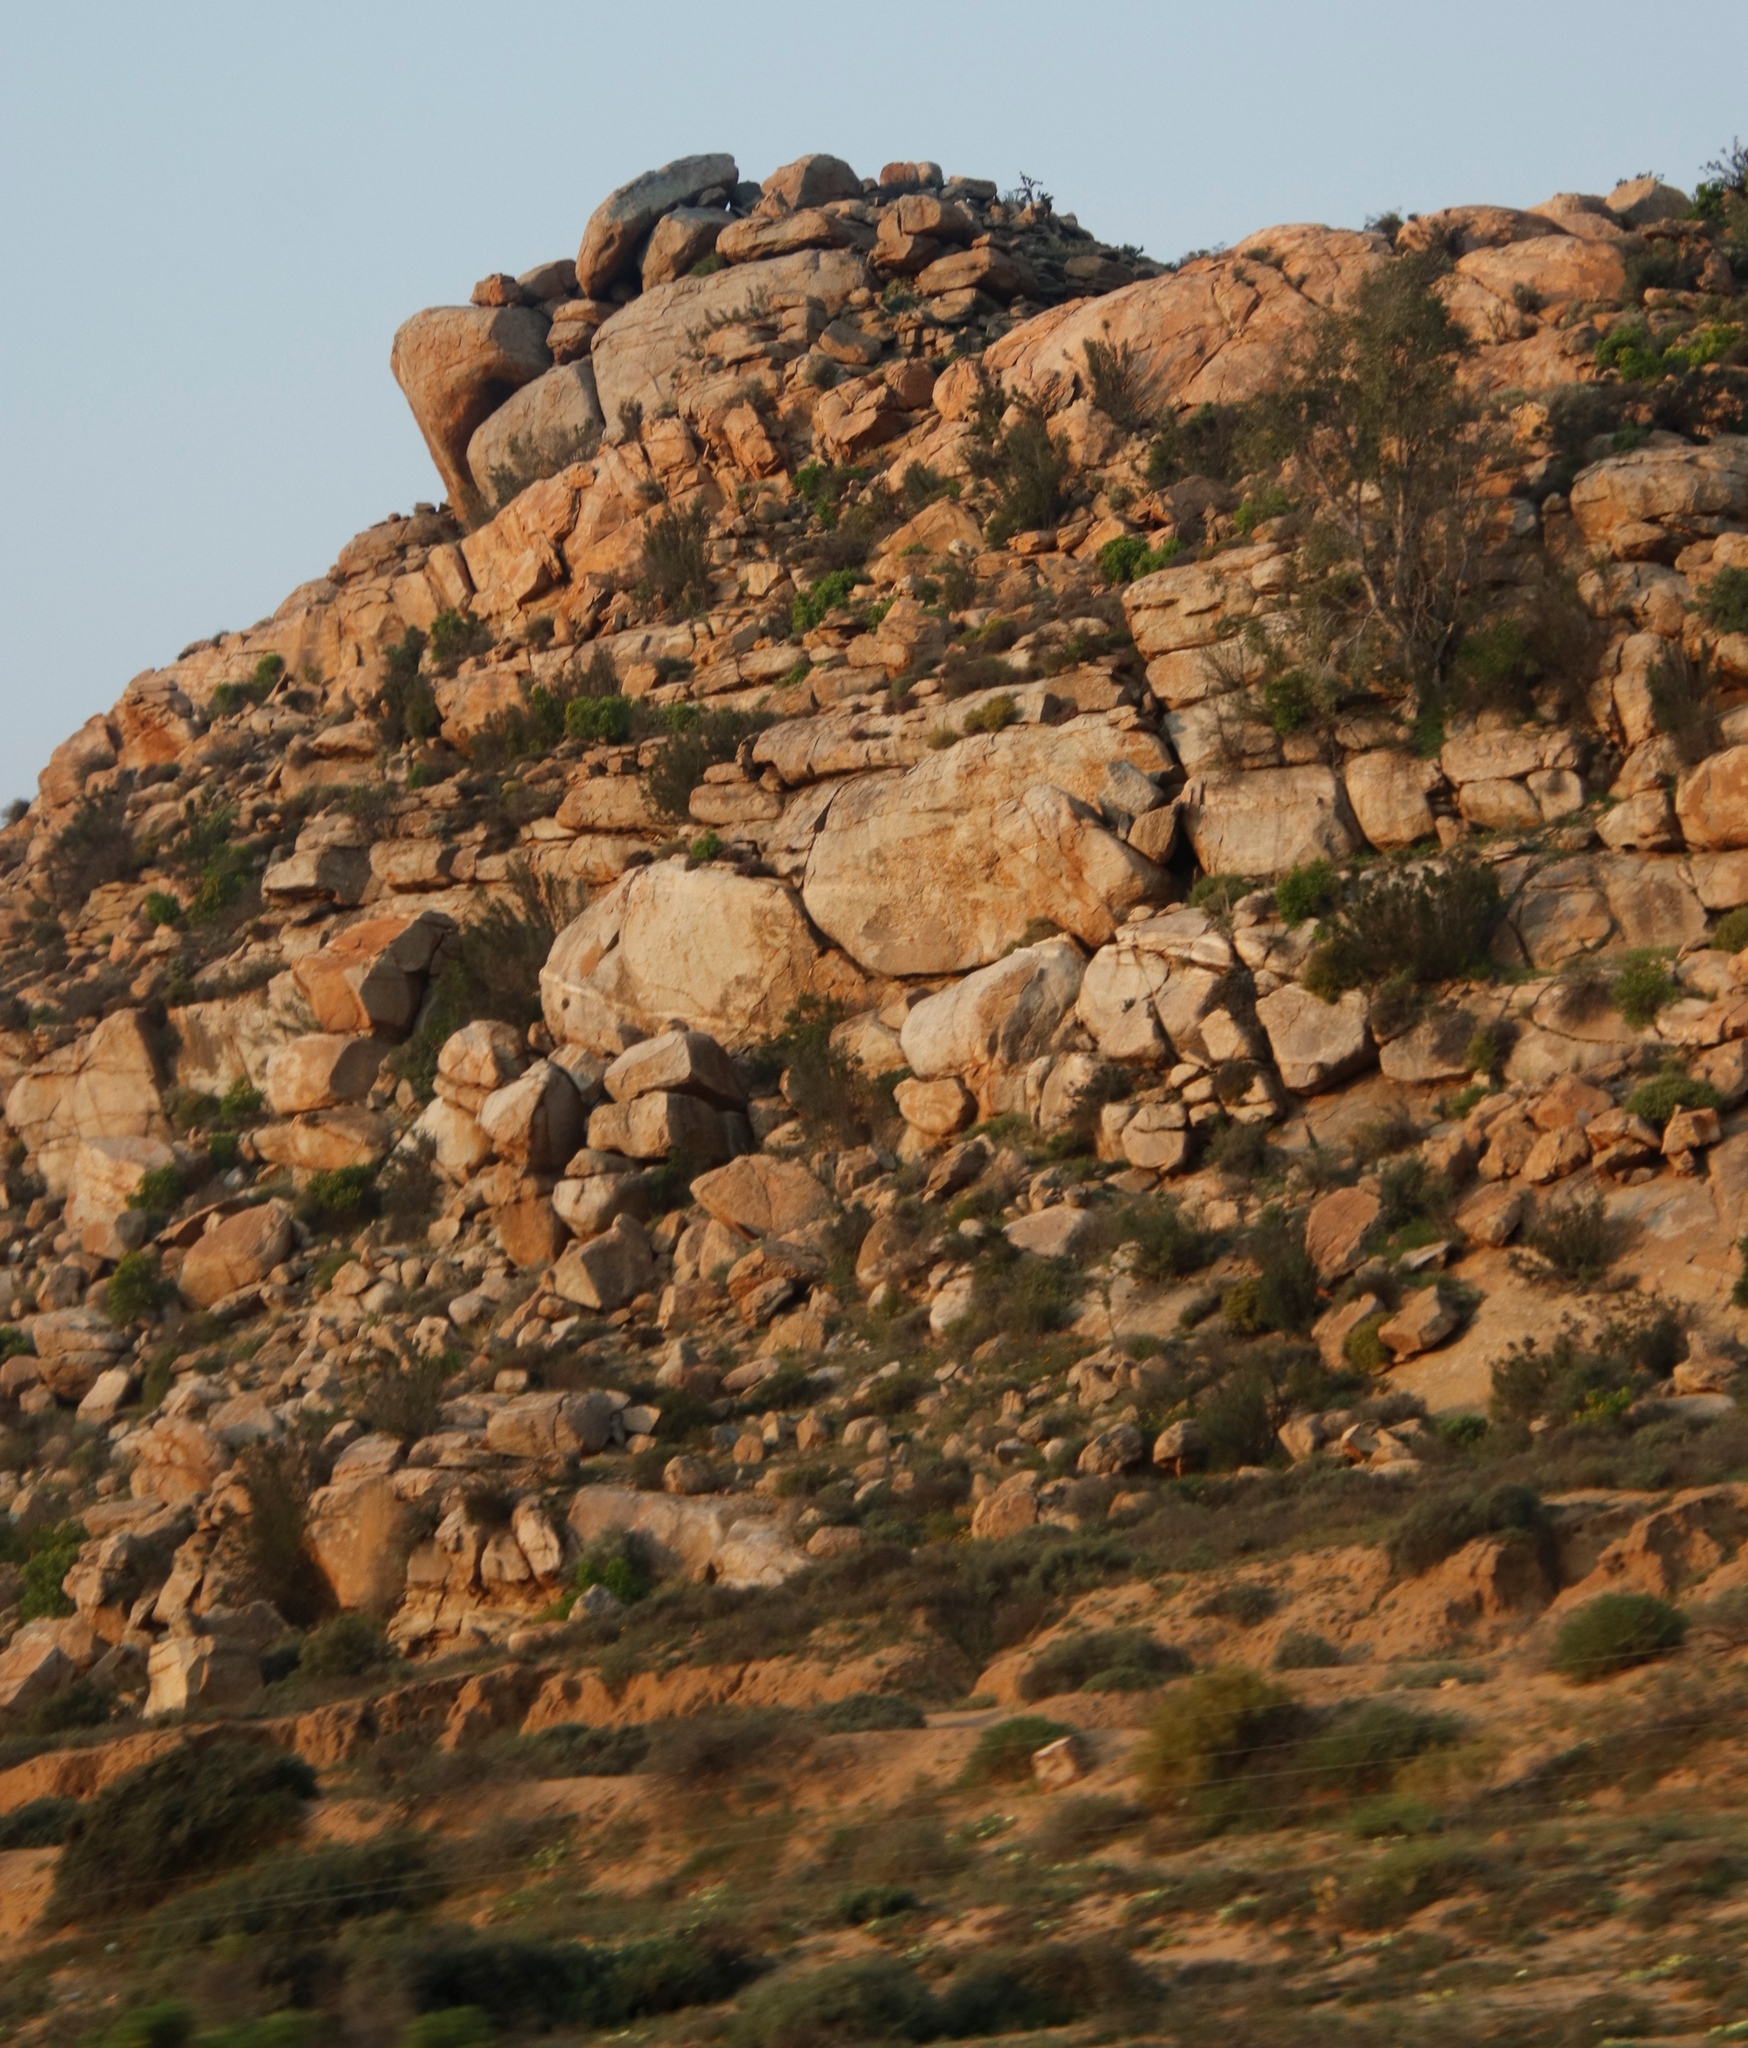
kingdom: Plantae
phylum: Tracheophyta
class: Magnoliopsida
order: Rosales
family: Moraceae
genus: Ficus
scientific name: Ficus cordata
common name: Namaqua rock fig
